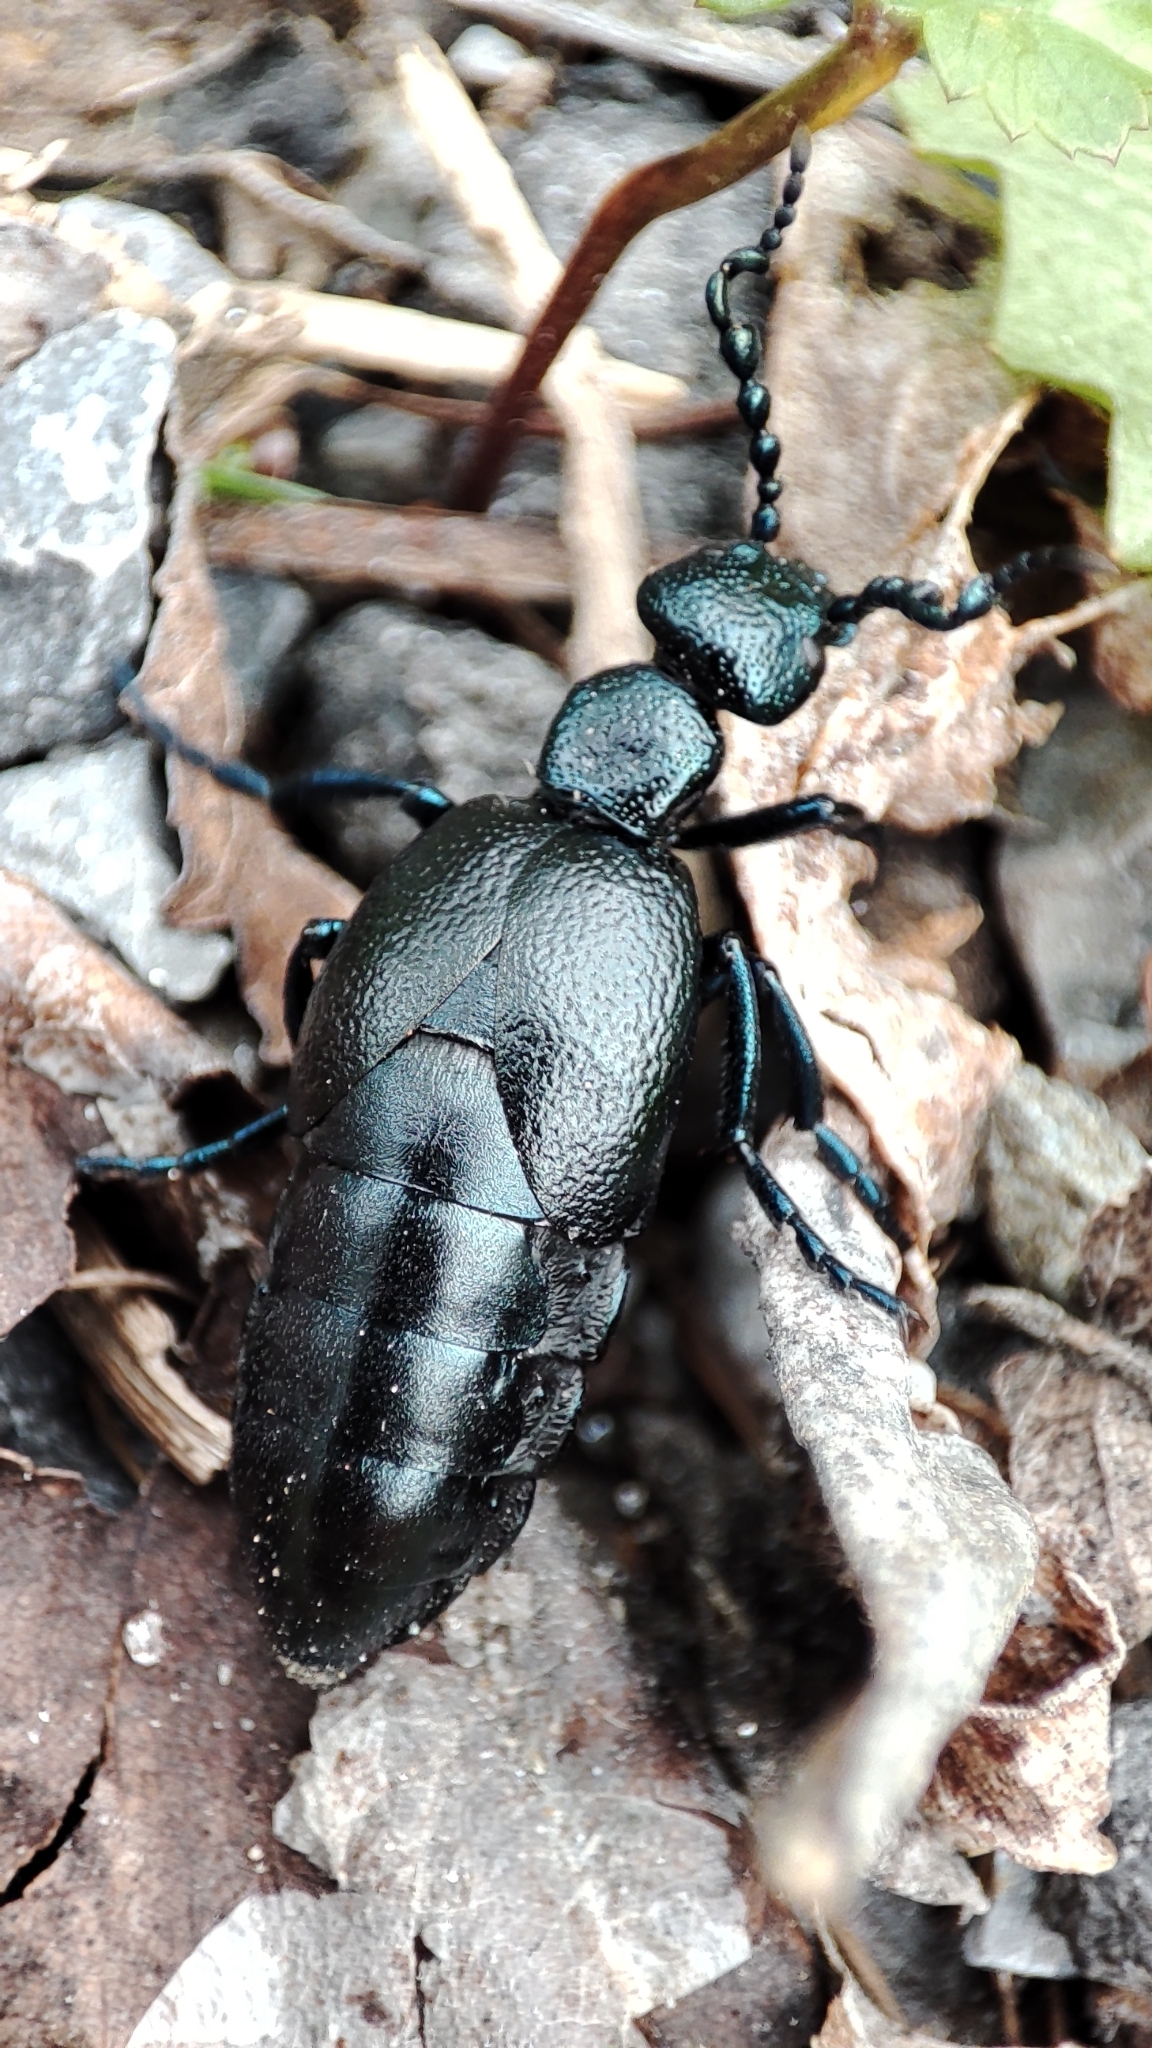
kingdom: Animalia
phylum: Arthropoda
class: Insecta
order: Coleoptera
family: Meloidae
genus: Meloe
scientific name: Meloe proscarabaeus
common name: Black oil-beetle
